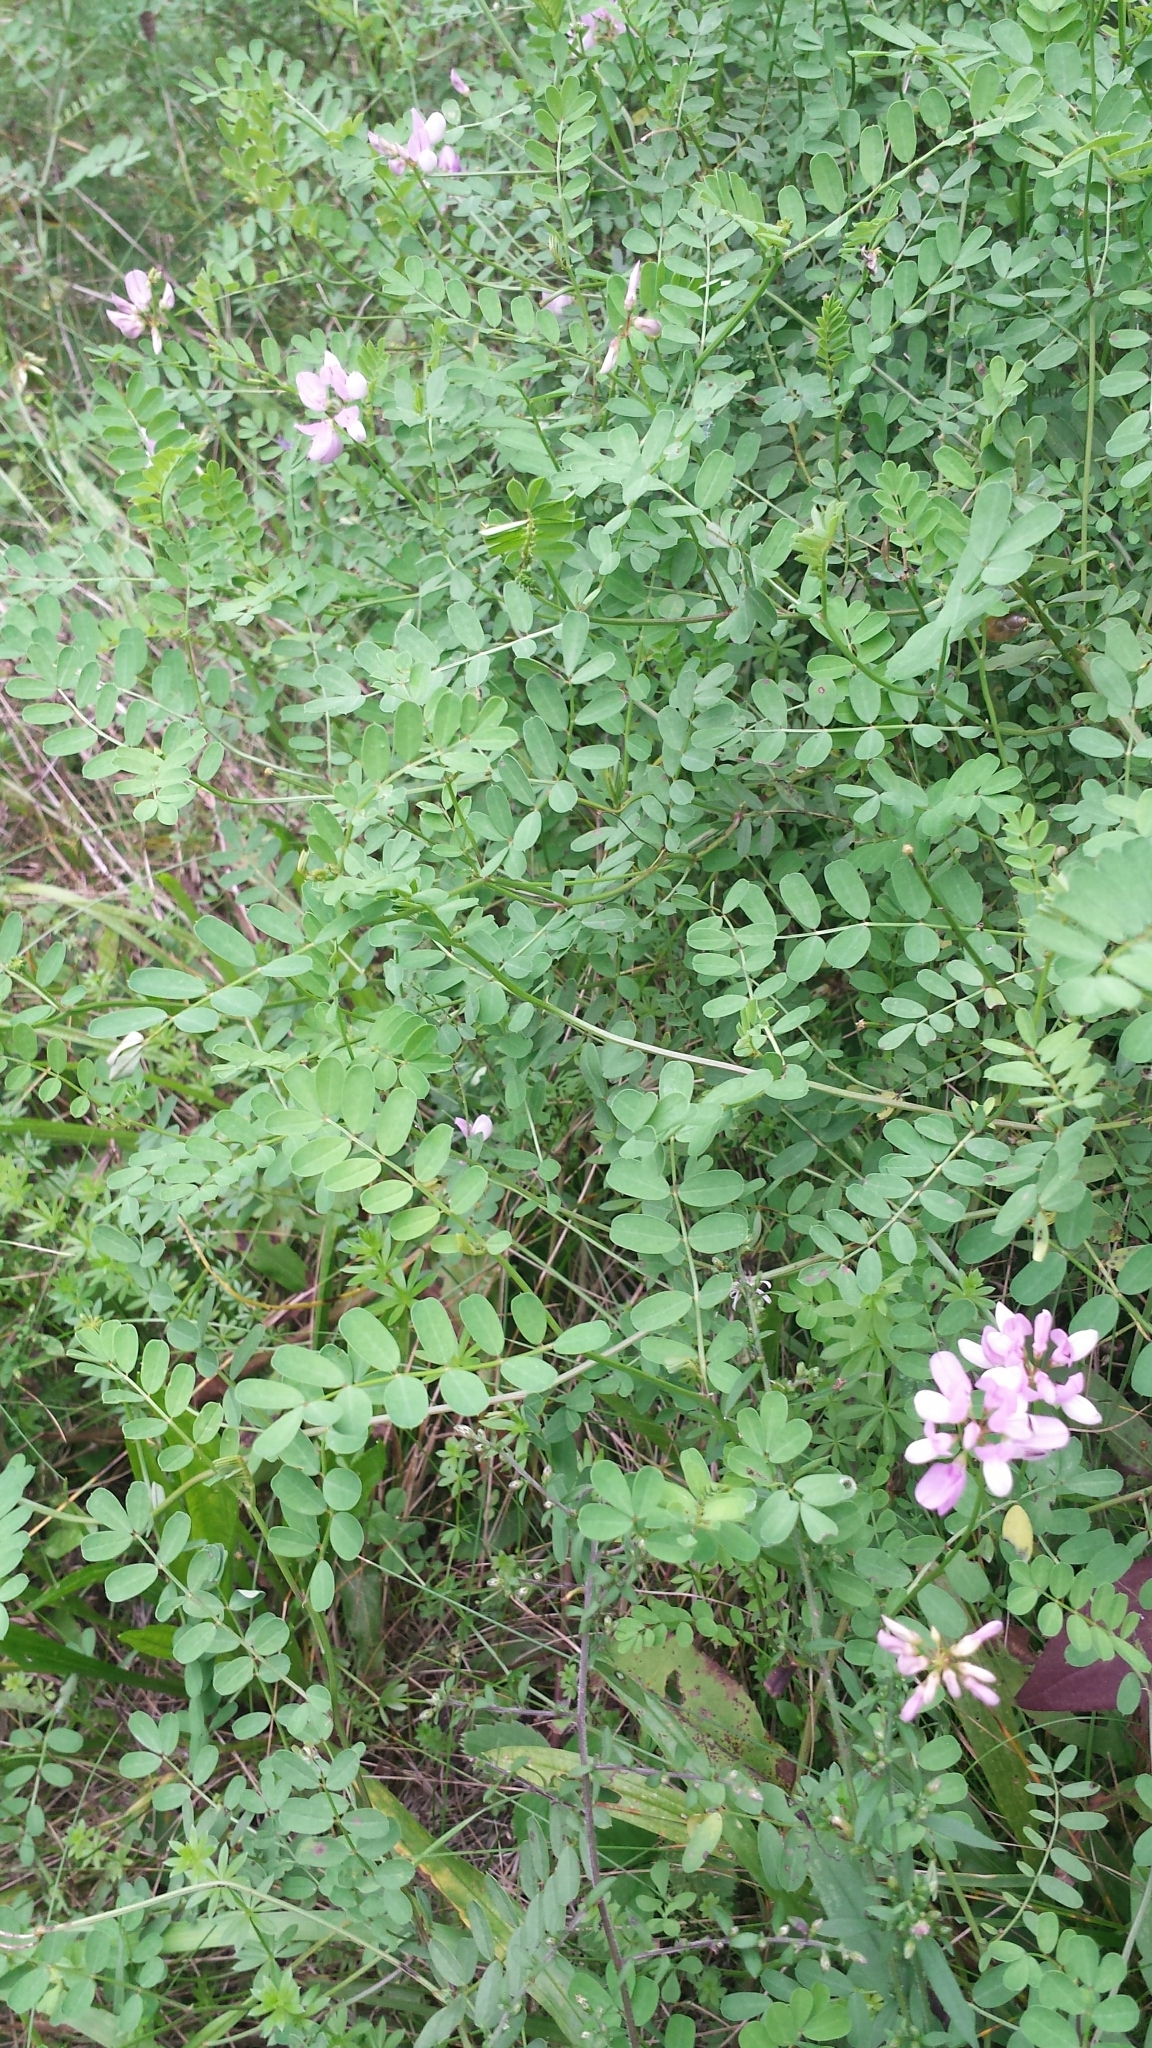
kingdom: Plantae
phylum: Tracheophyta
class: Magnoliopsida
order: Fabales
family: Fabaceae
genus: Coronilla
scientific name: Coronilla varia
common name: Crownvetch
